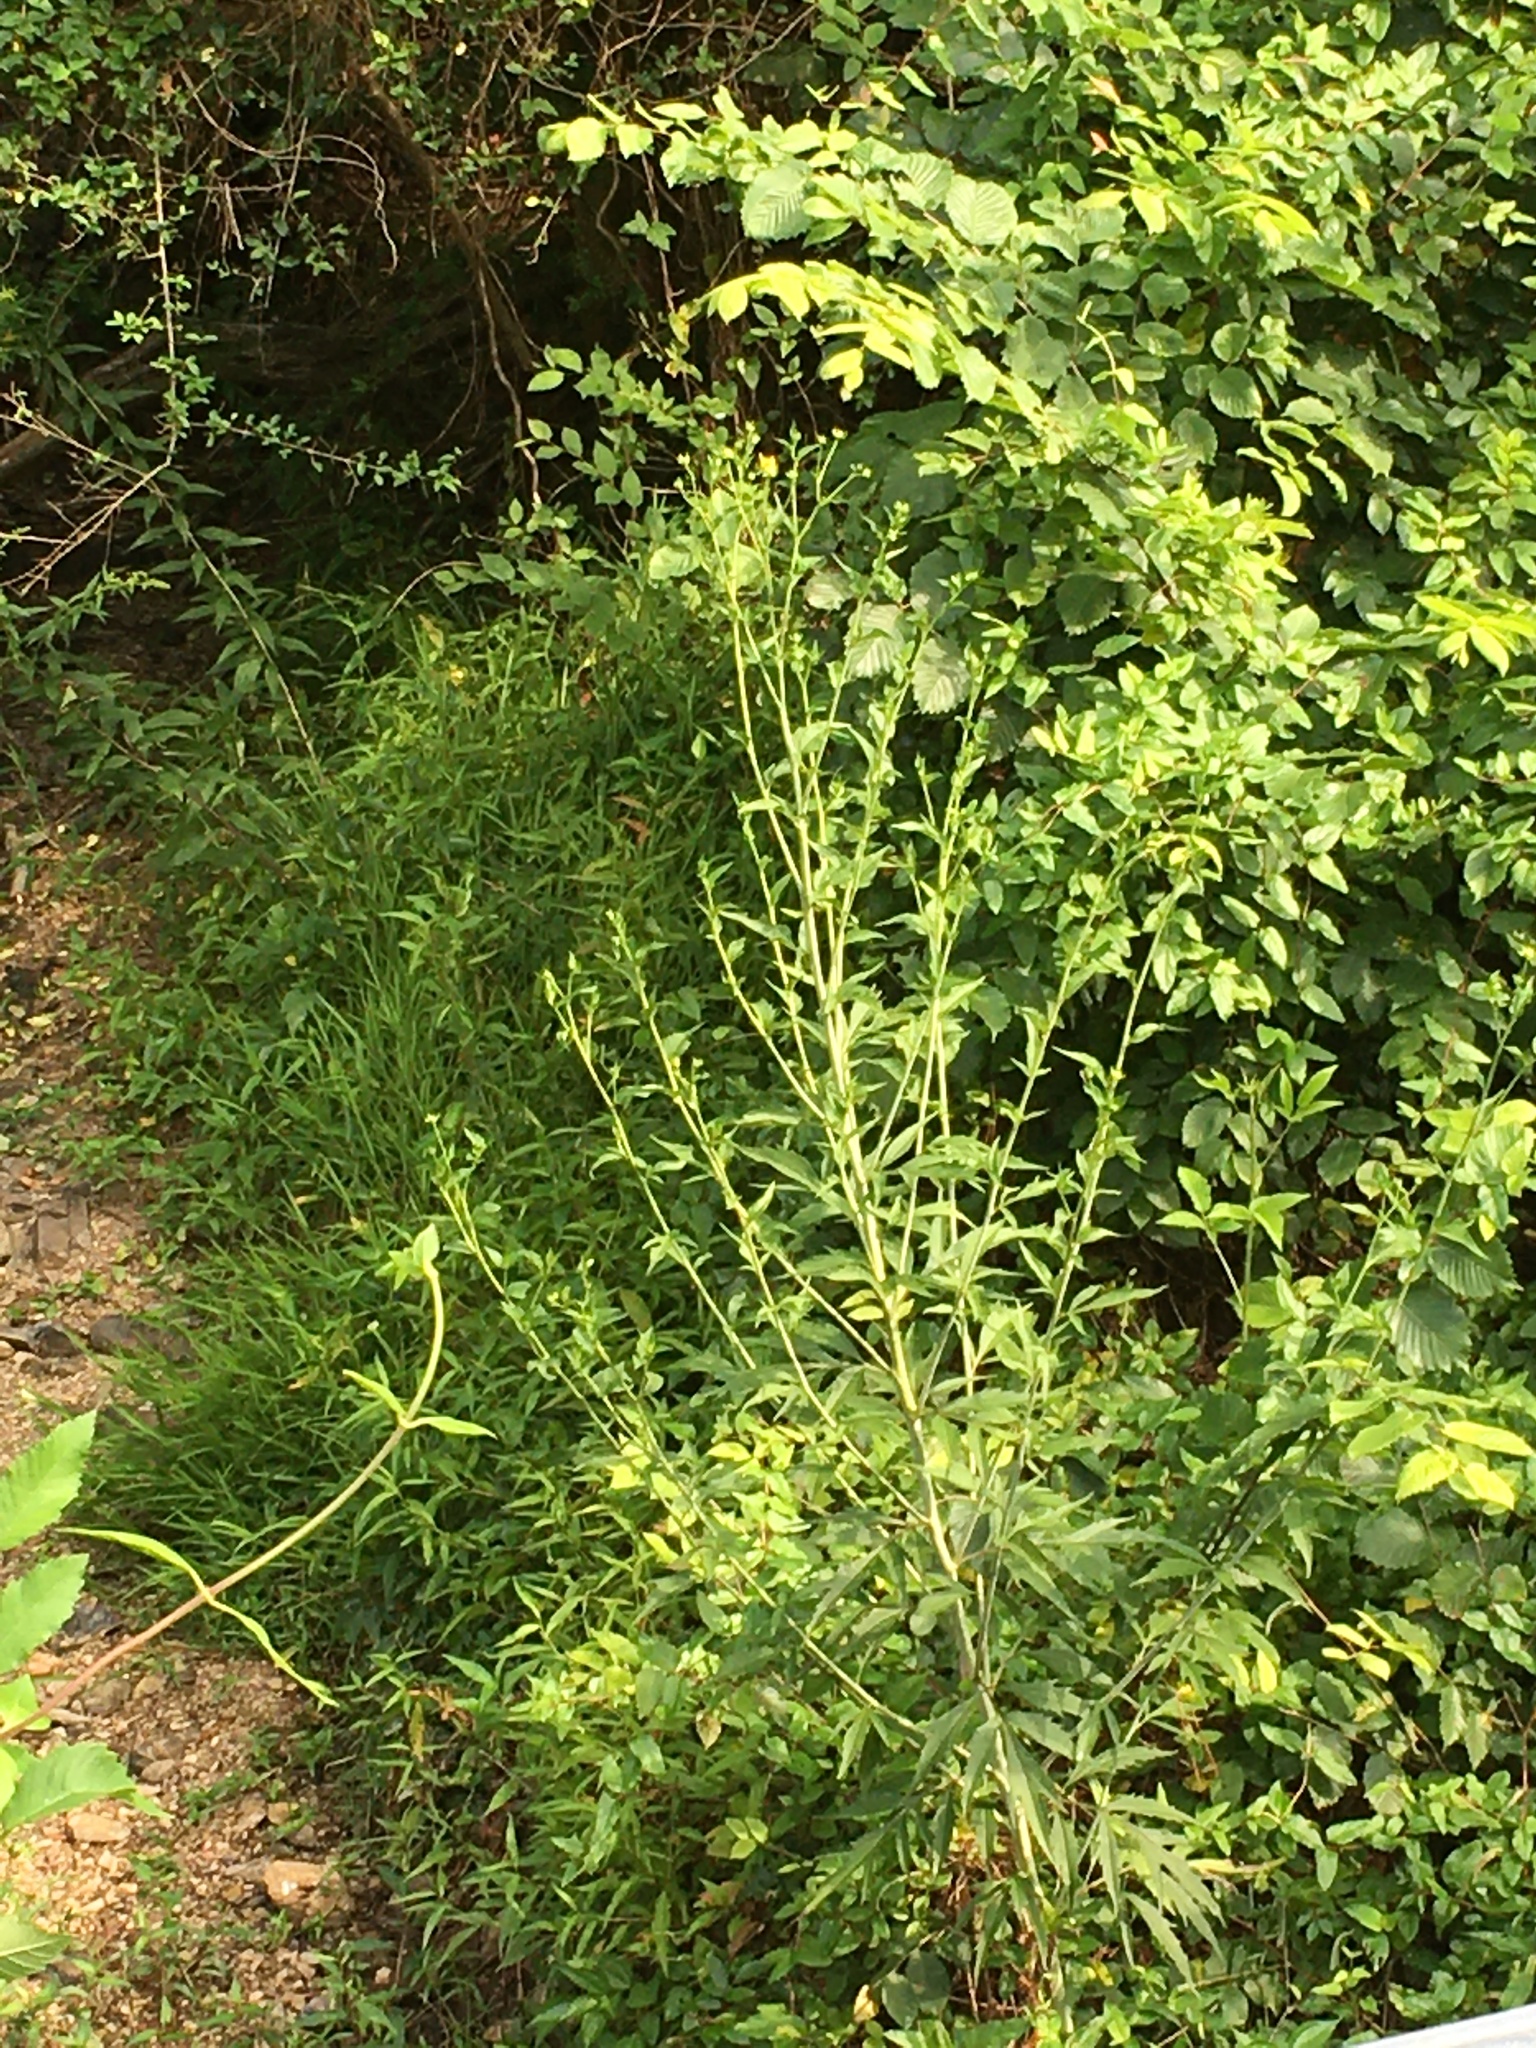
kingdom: Plantae
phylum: Tracheophyta
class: Magnoliopsida
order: Asterales
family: Asteraceae
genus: Rudbeckia
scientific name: Rudbeckia laciniata
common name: Coneflower
